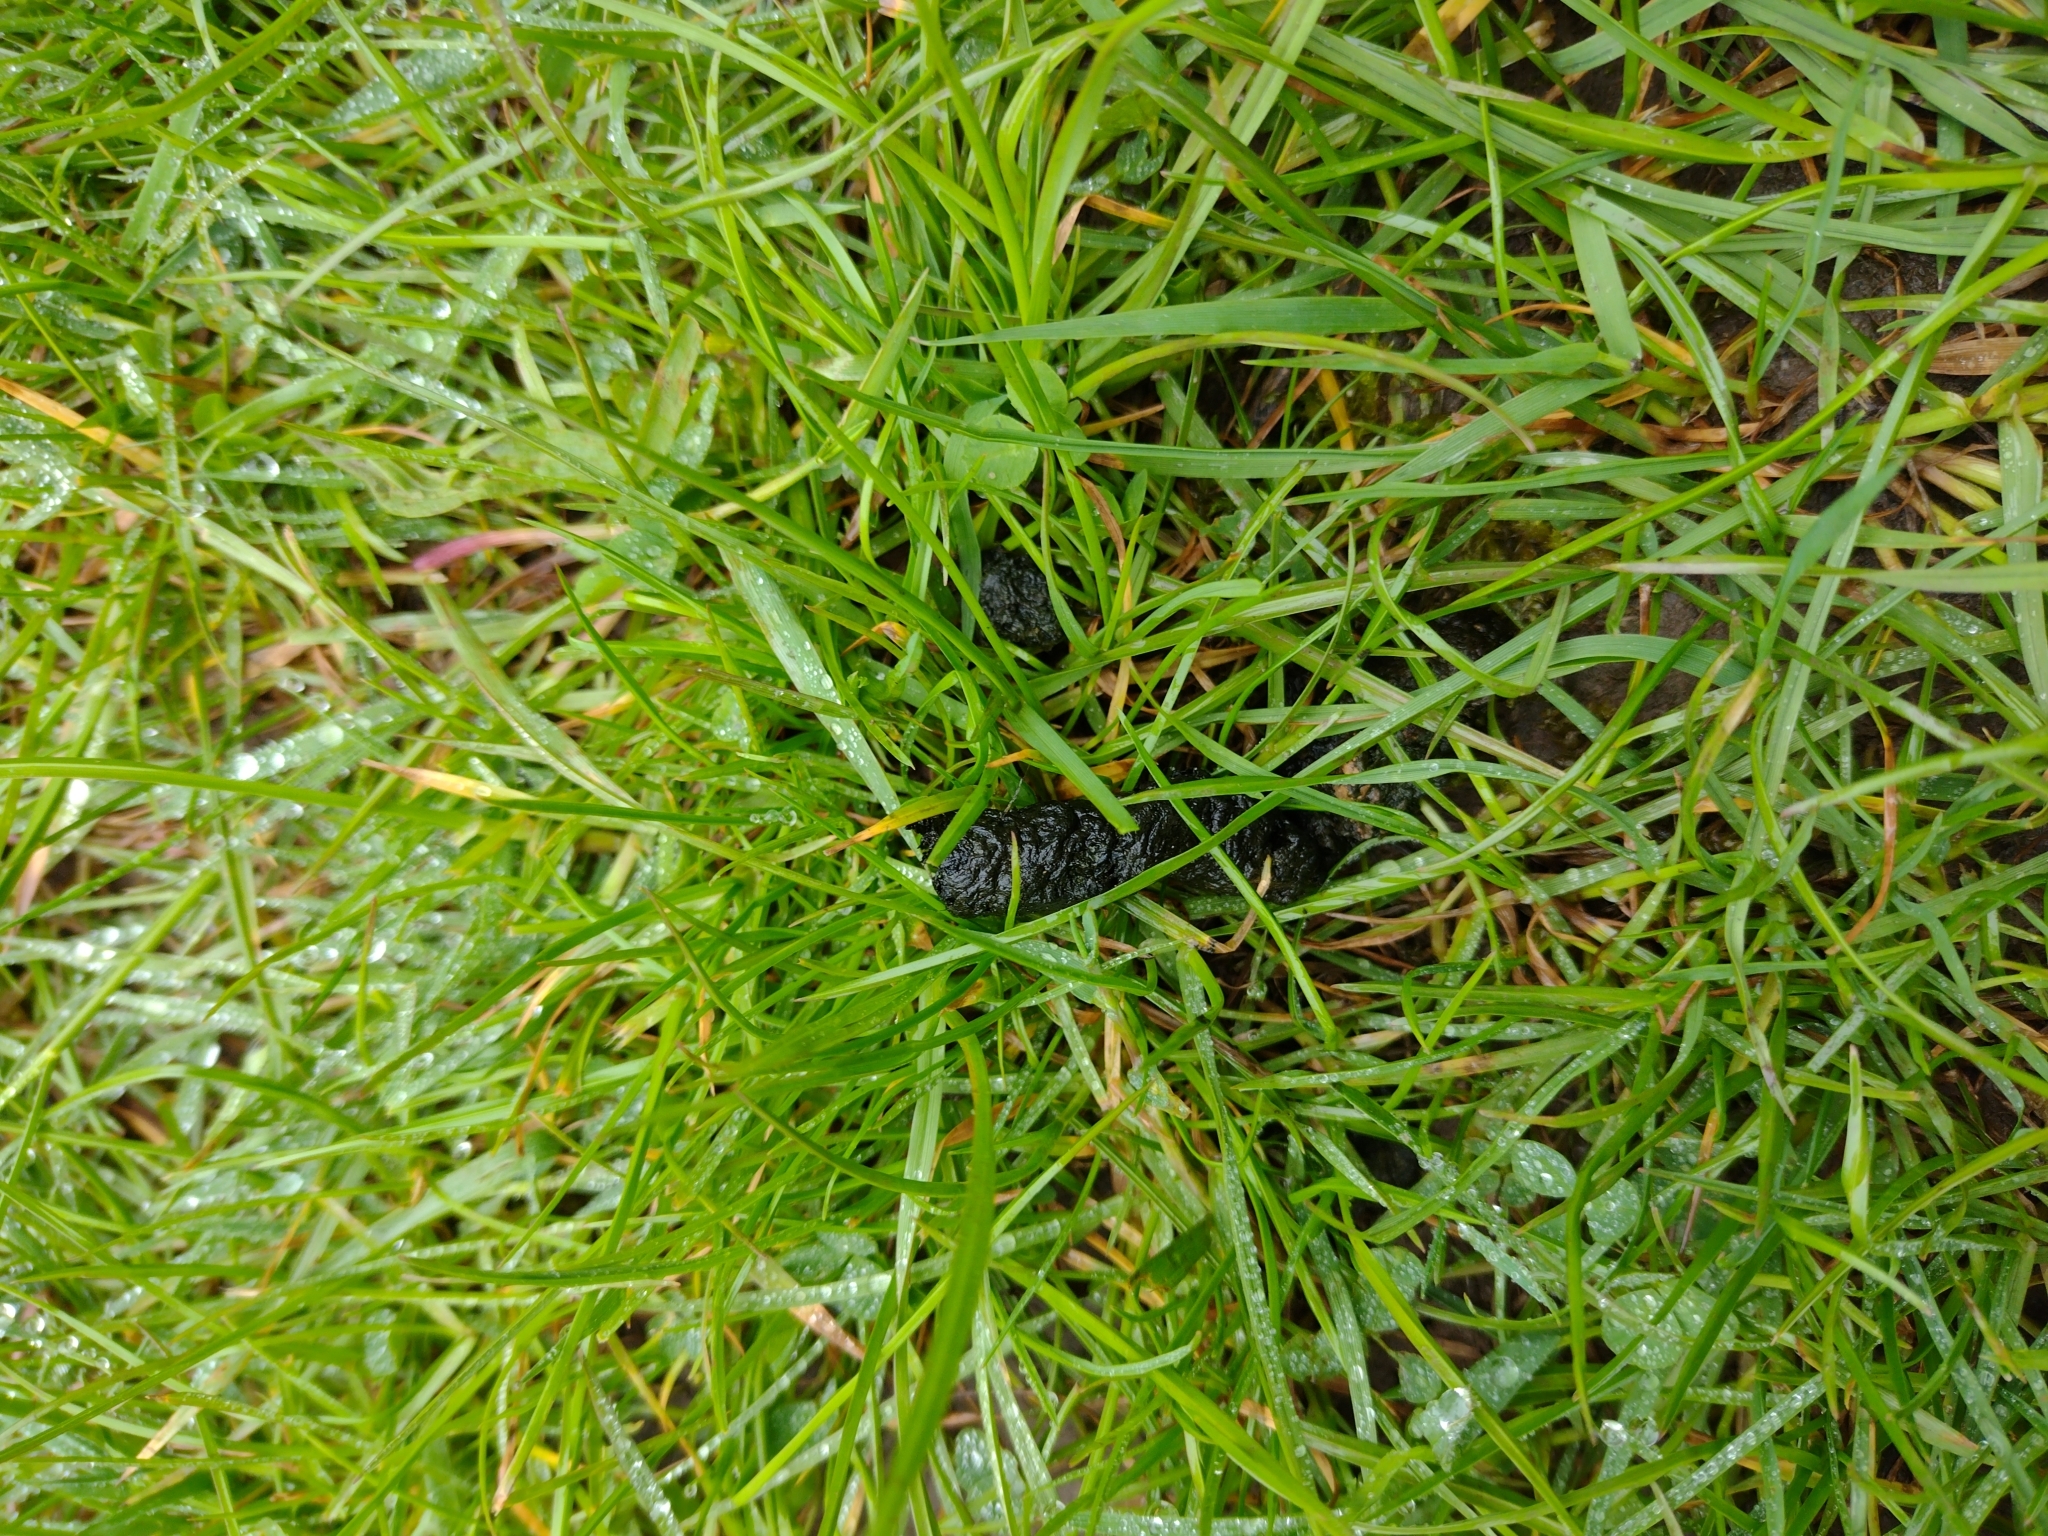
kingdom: Animalia
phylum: Chordata
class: Mammalia
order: Erinaceomorpha
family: Erinaceidae
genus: Erinaceus
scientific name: Erinaceus europaeus
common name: West european hedgehog
